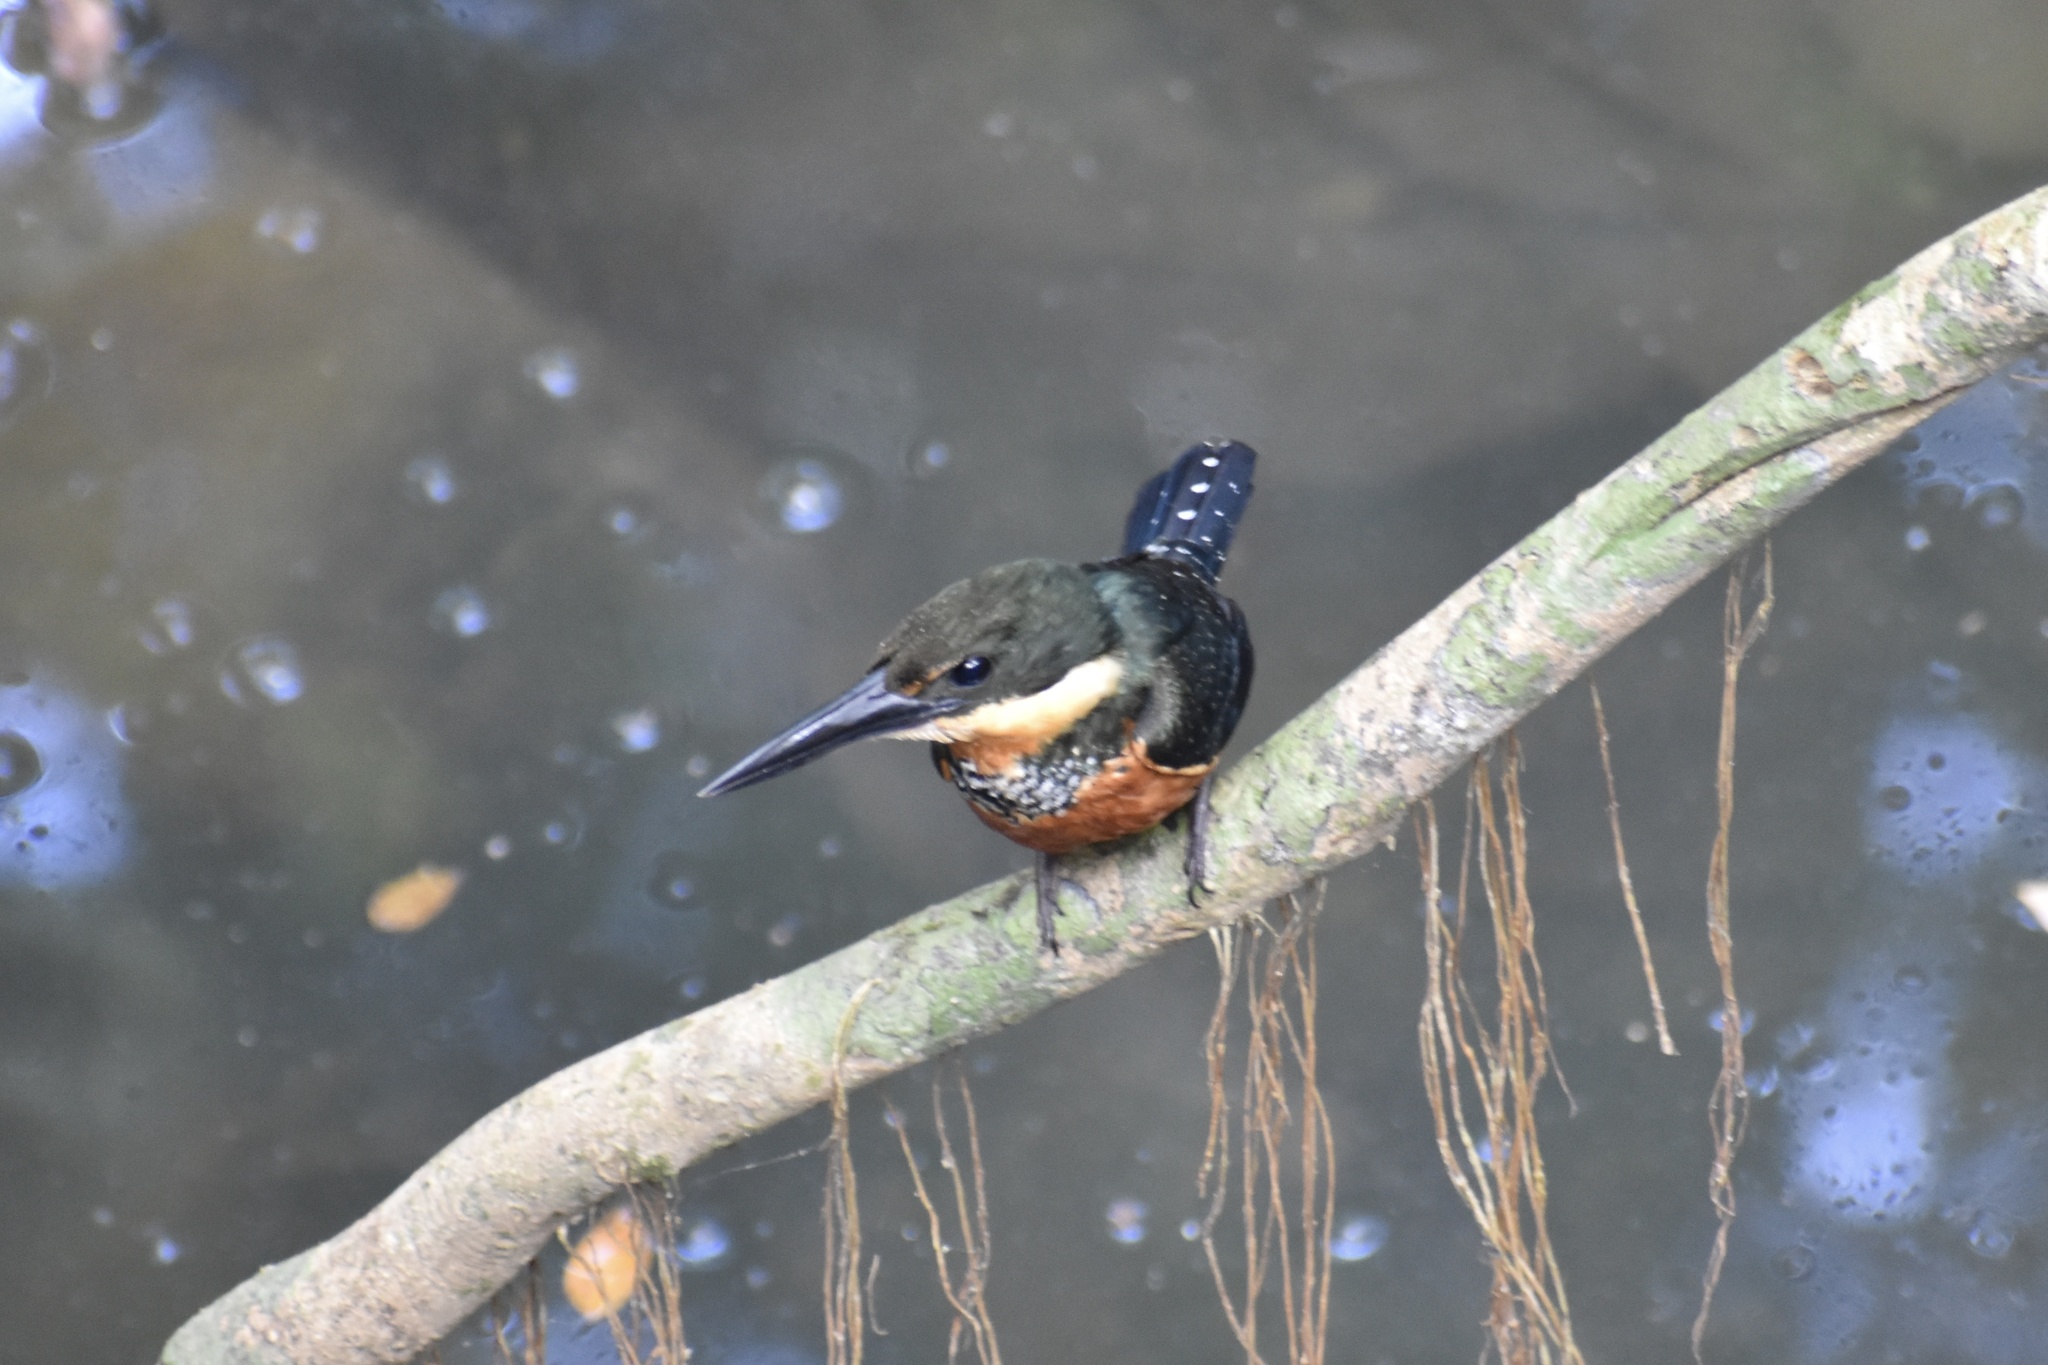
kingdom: Animalia
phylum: Chordata
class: Aves
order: Coraciiformes
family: Alcedinidae
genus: Chloroceryle
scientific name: Chloroceryle inda
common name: Green-and-rufous kingfisher
